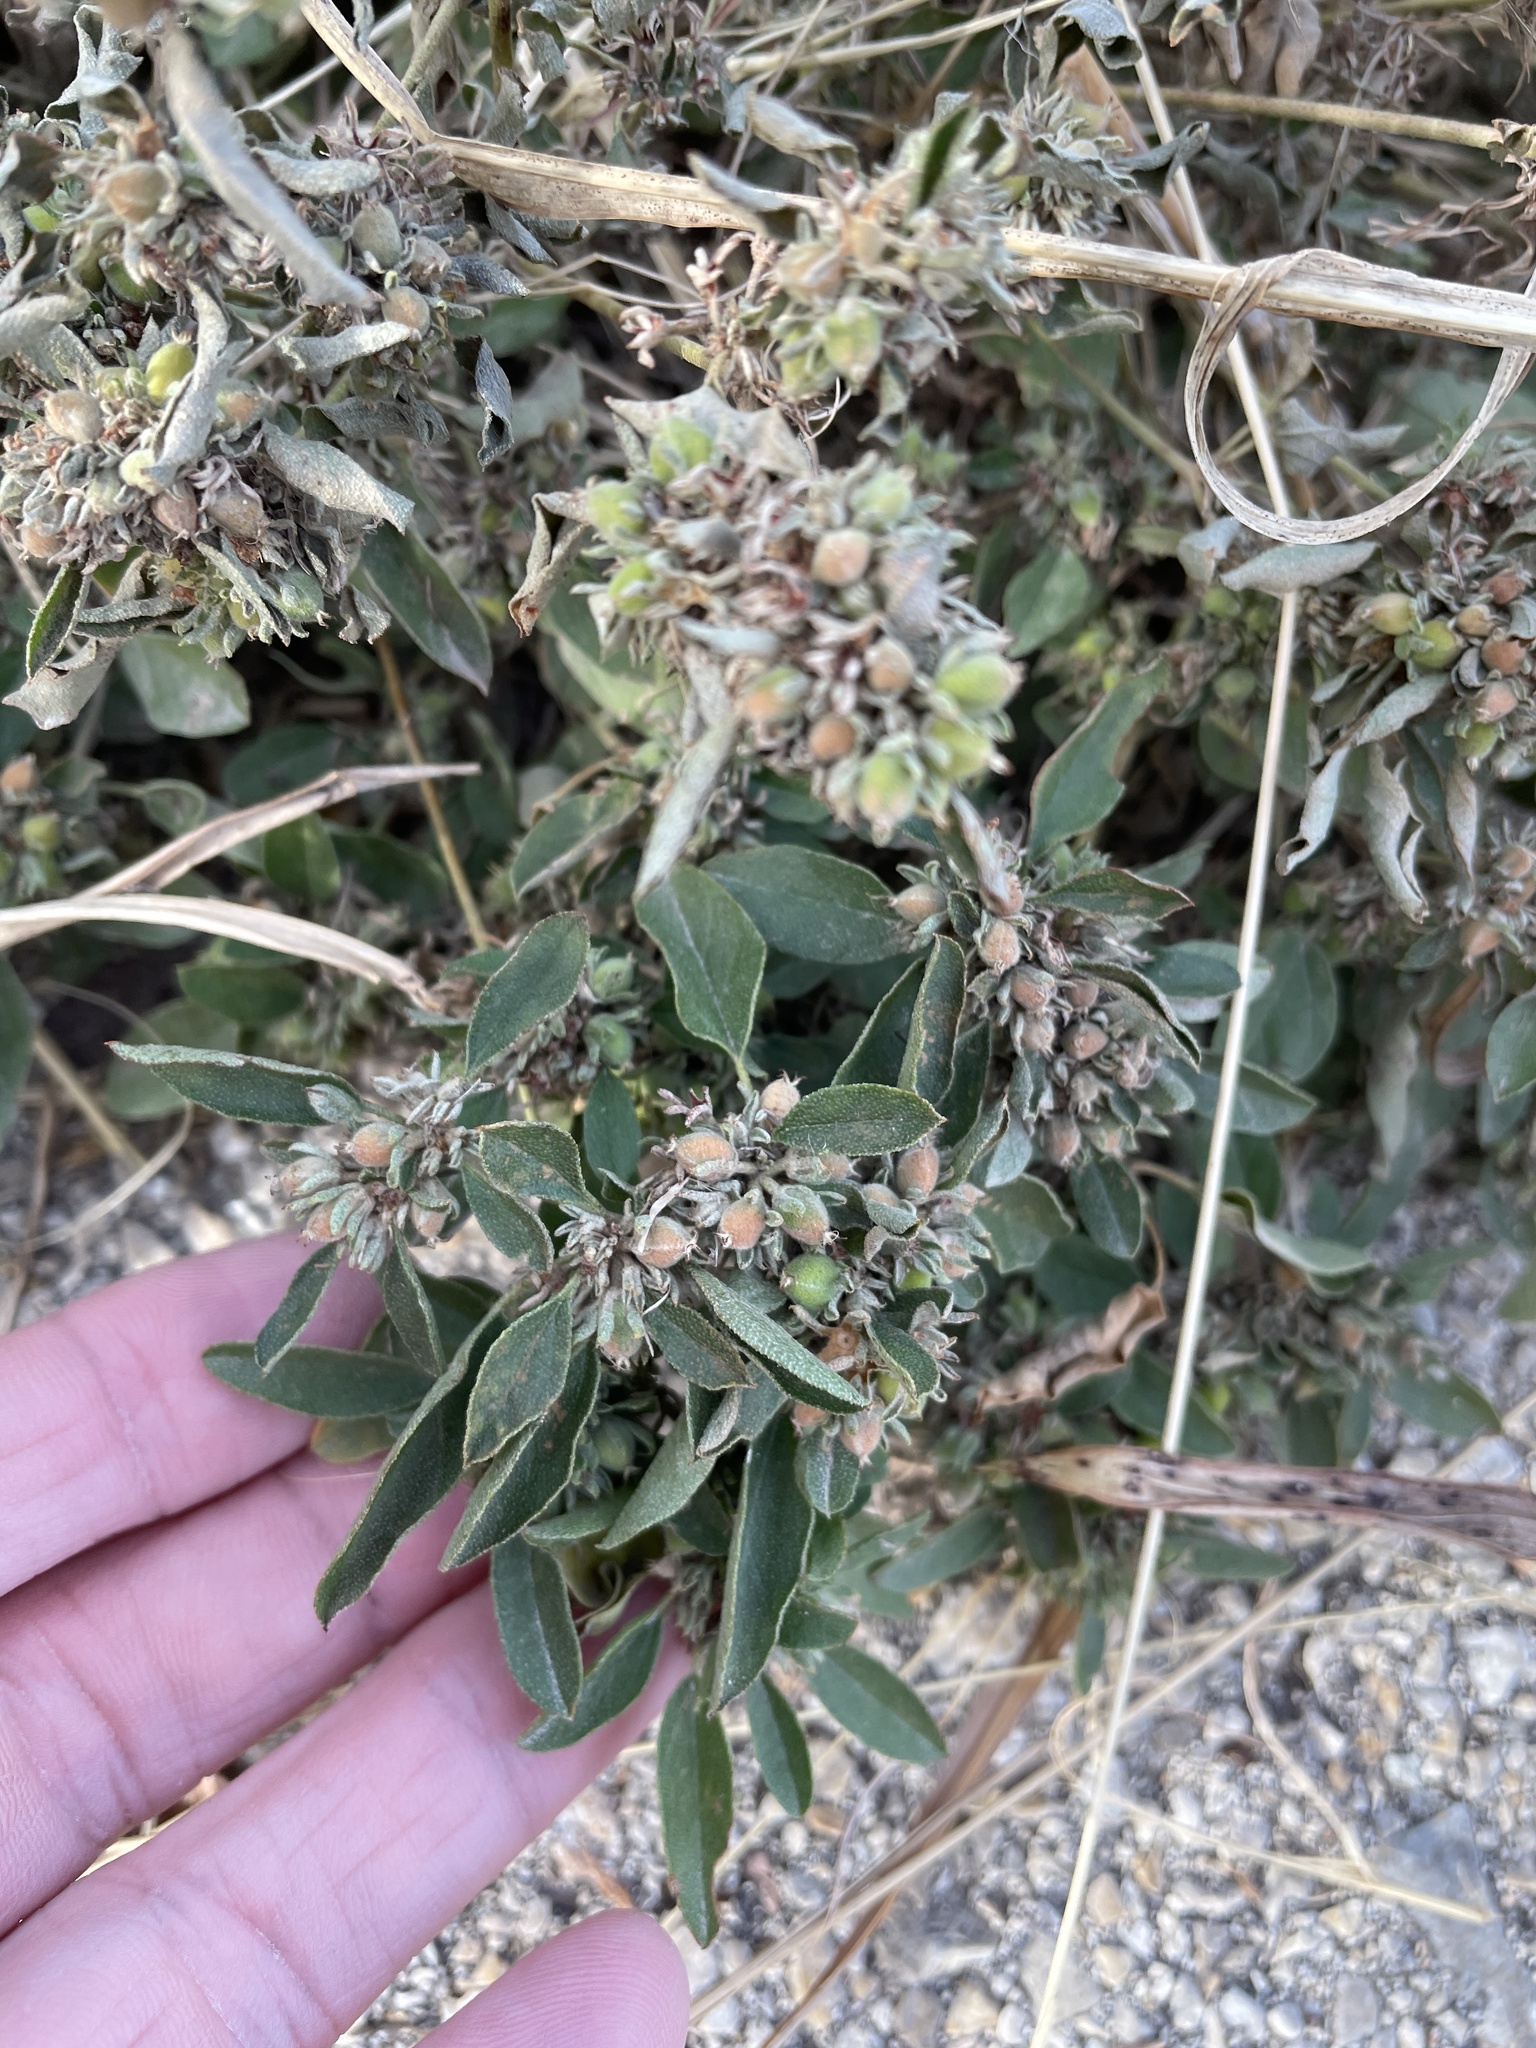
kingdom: Plantae
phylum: Tracheophyta
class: Magnoliopsida
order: Malpighiales
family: Euphorbiaceae
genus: Croton
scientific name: Croton monanthogynus
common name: One-seed croton
